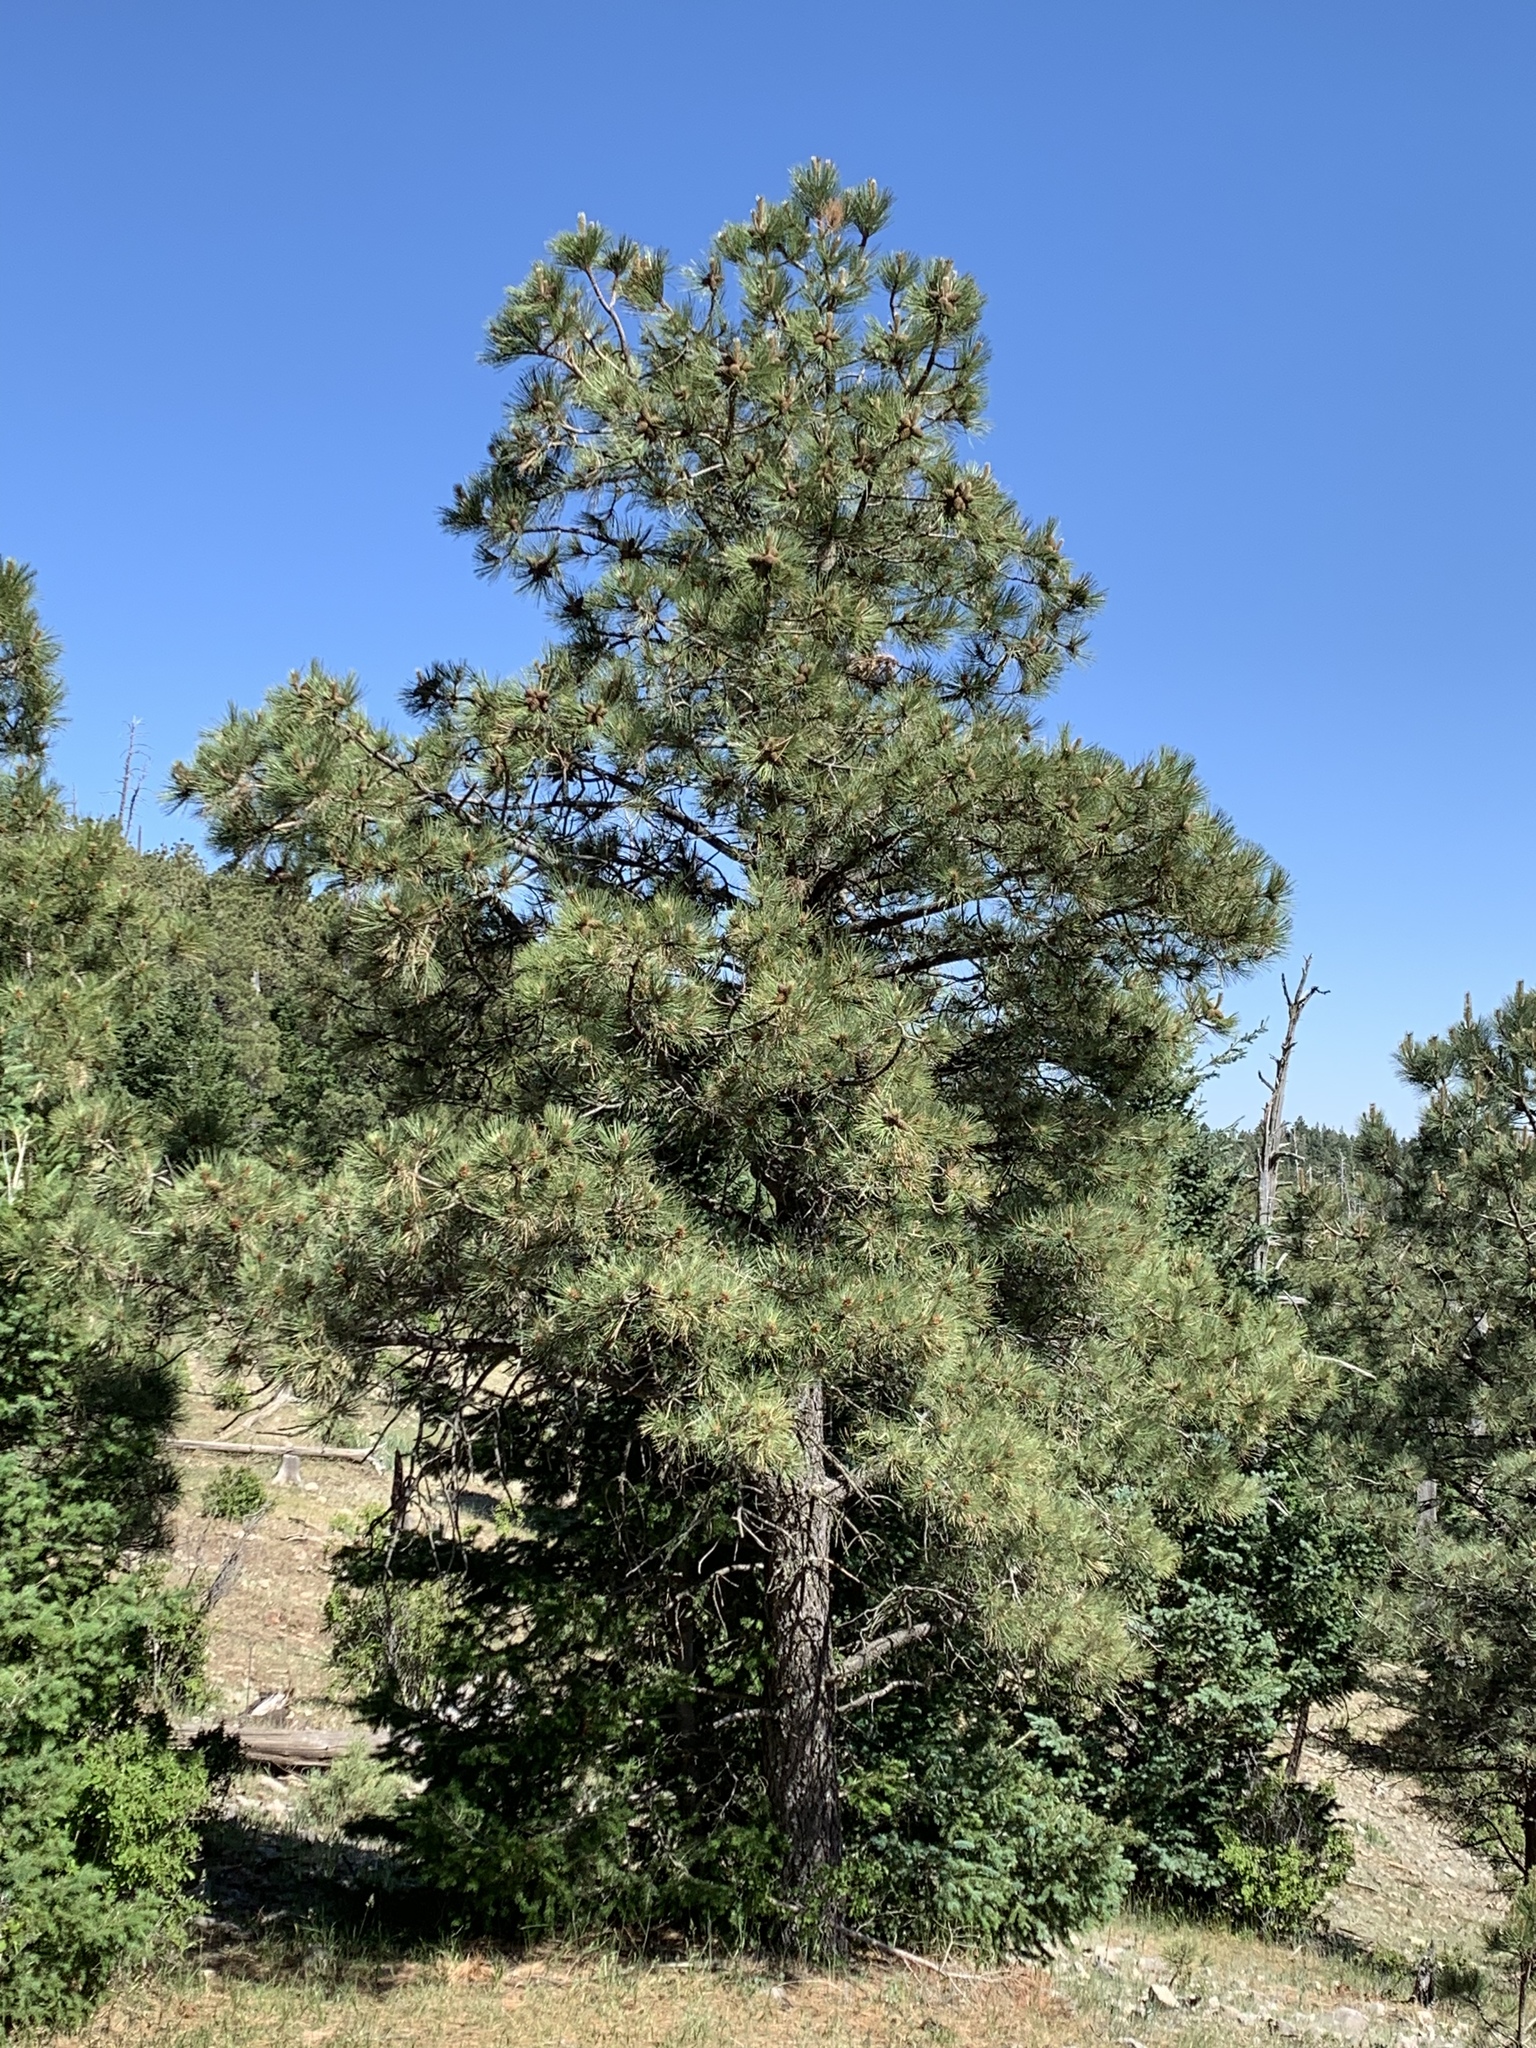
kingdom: Plantae
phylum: Tracheophyta
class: Pinopsida
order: Pinales
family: Pinaceae
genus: Pinus
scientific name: Pinus ponderosa
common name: Western yellow-pine
